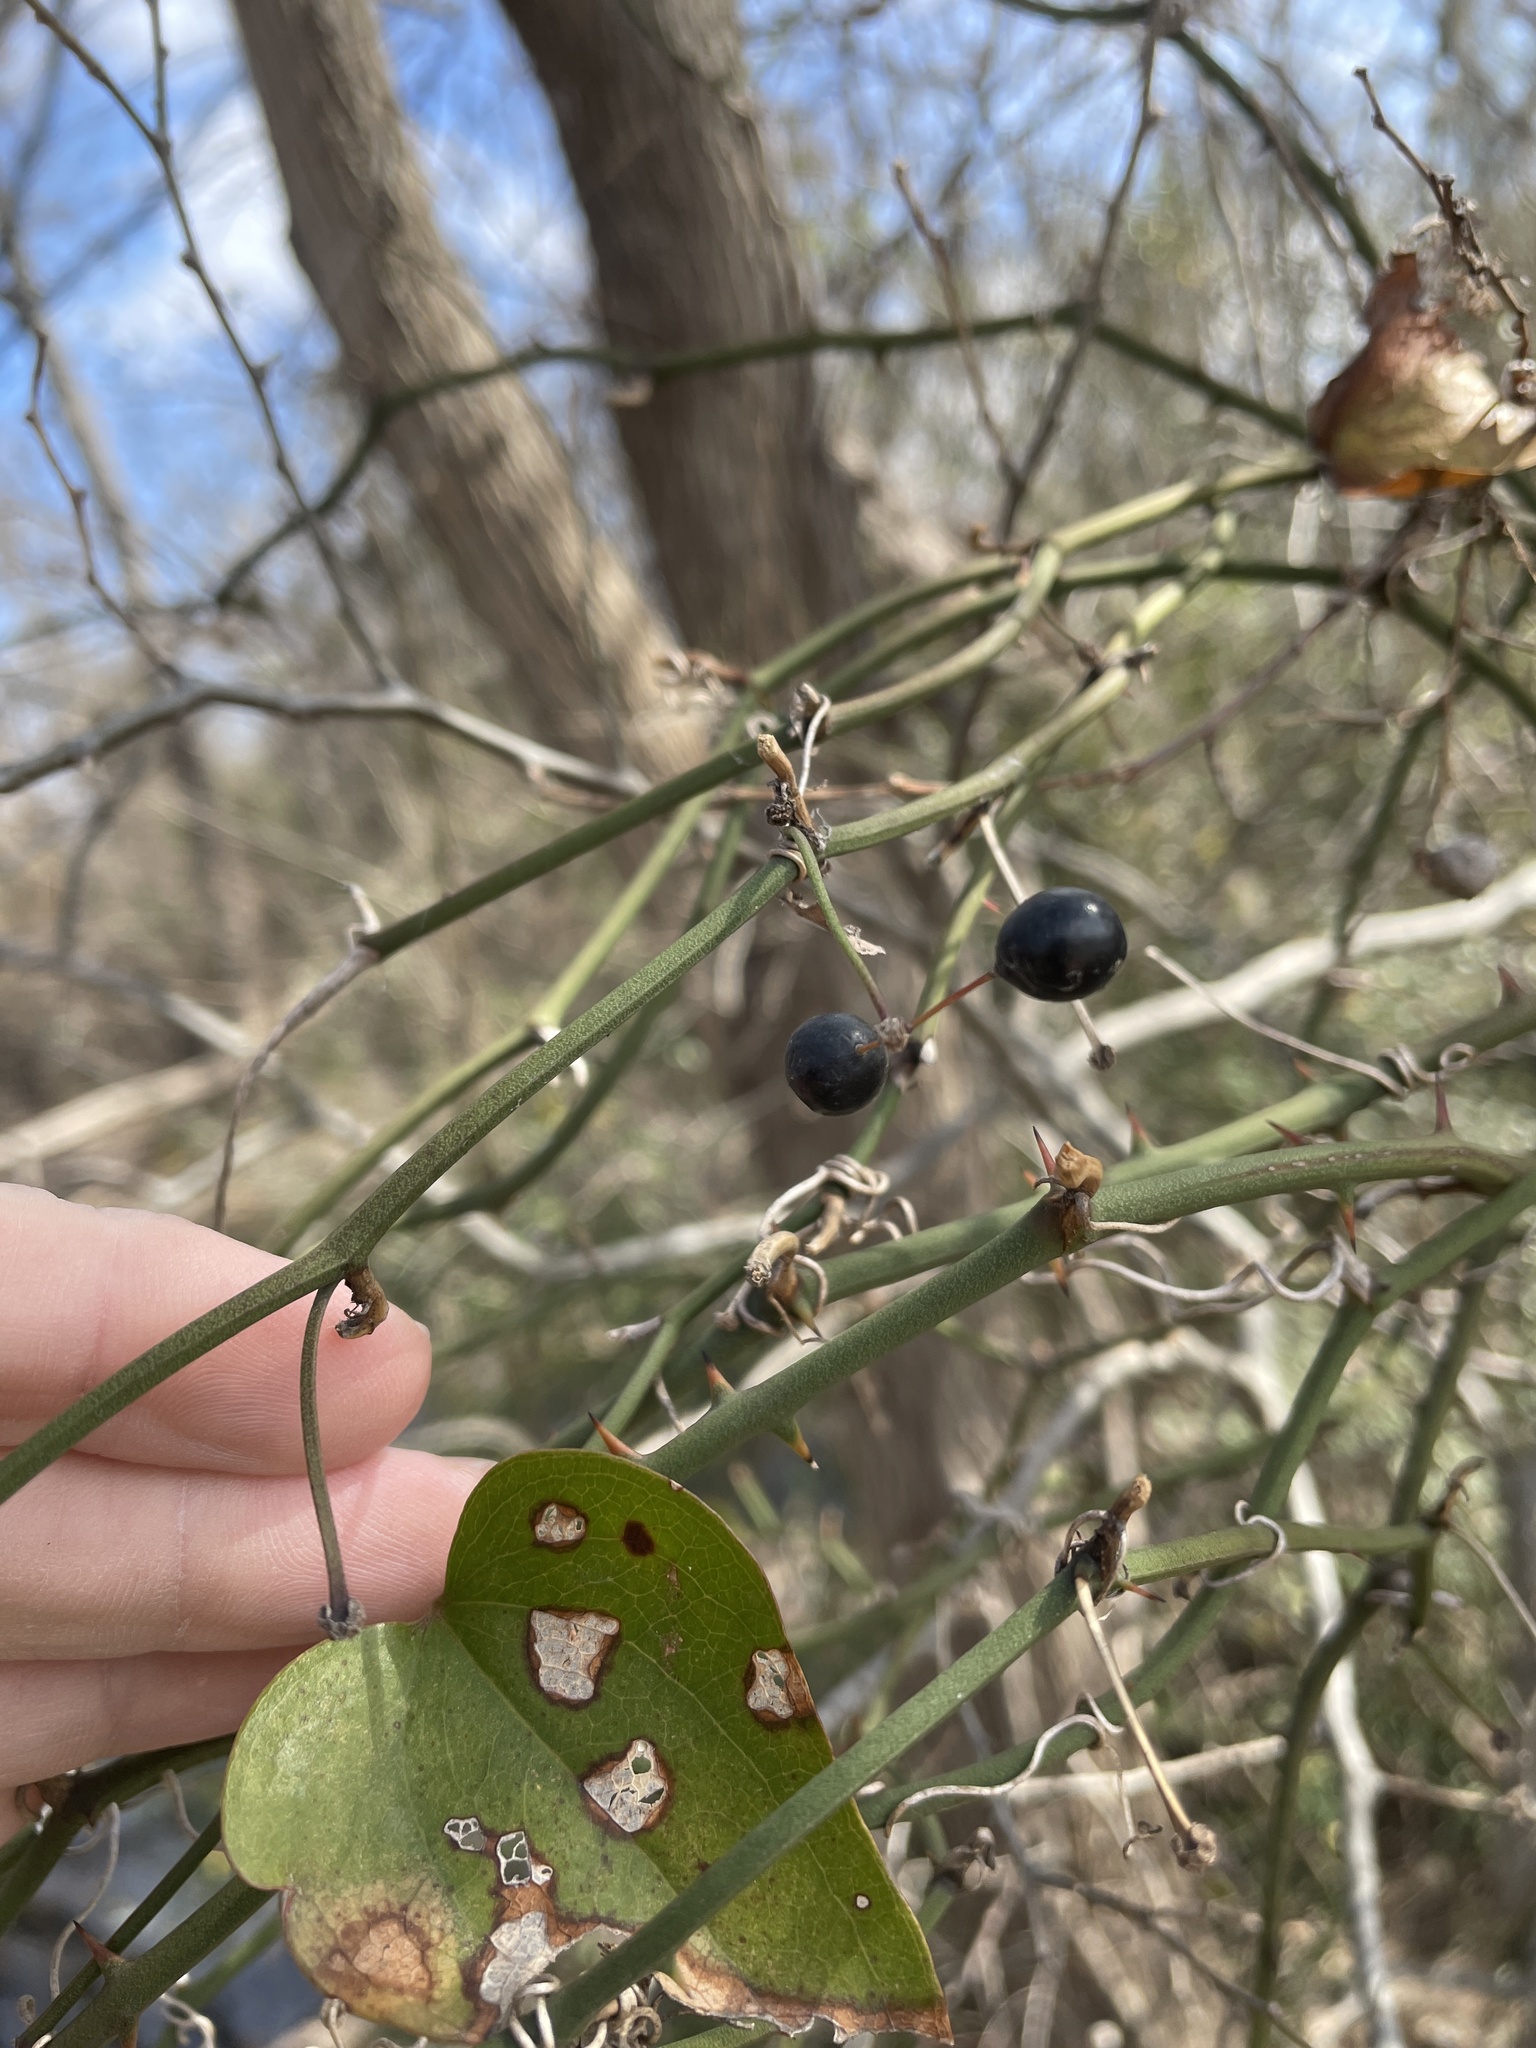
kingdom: Plantae
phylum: Tracheophyta
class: Liliopsida
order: Liliales
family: Smilacaceae
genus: Smilax
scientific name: Smilax bona-nox
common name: Catbrier
